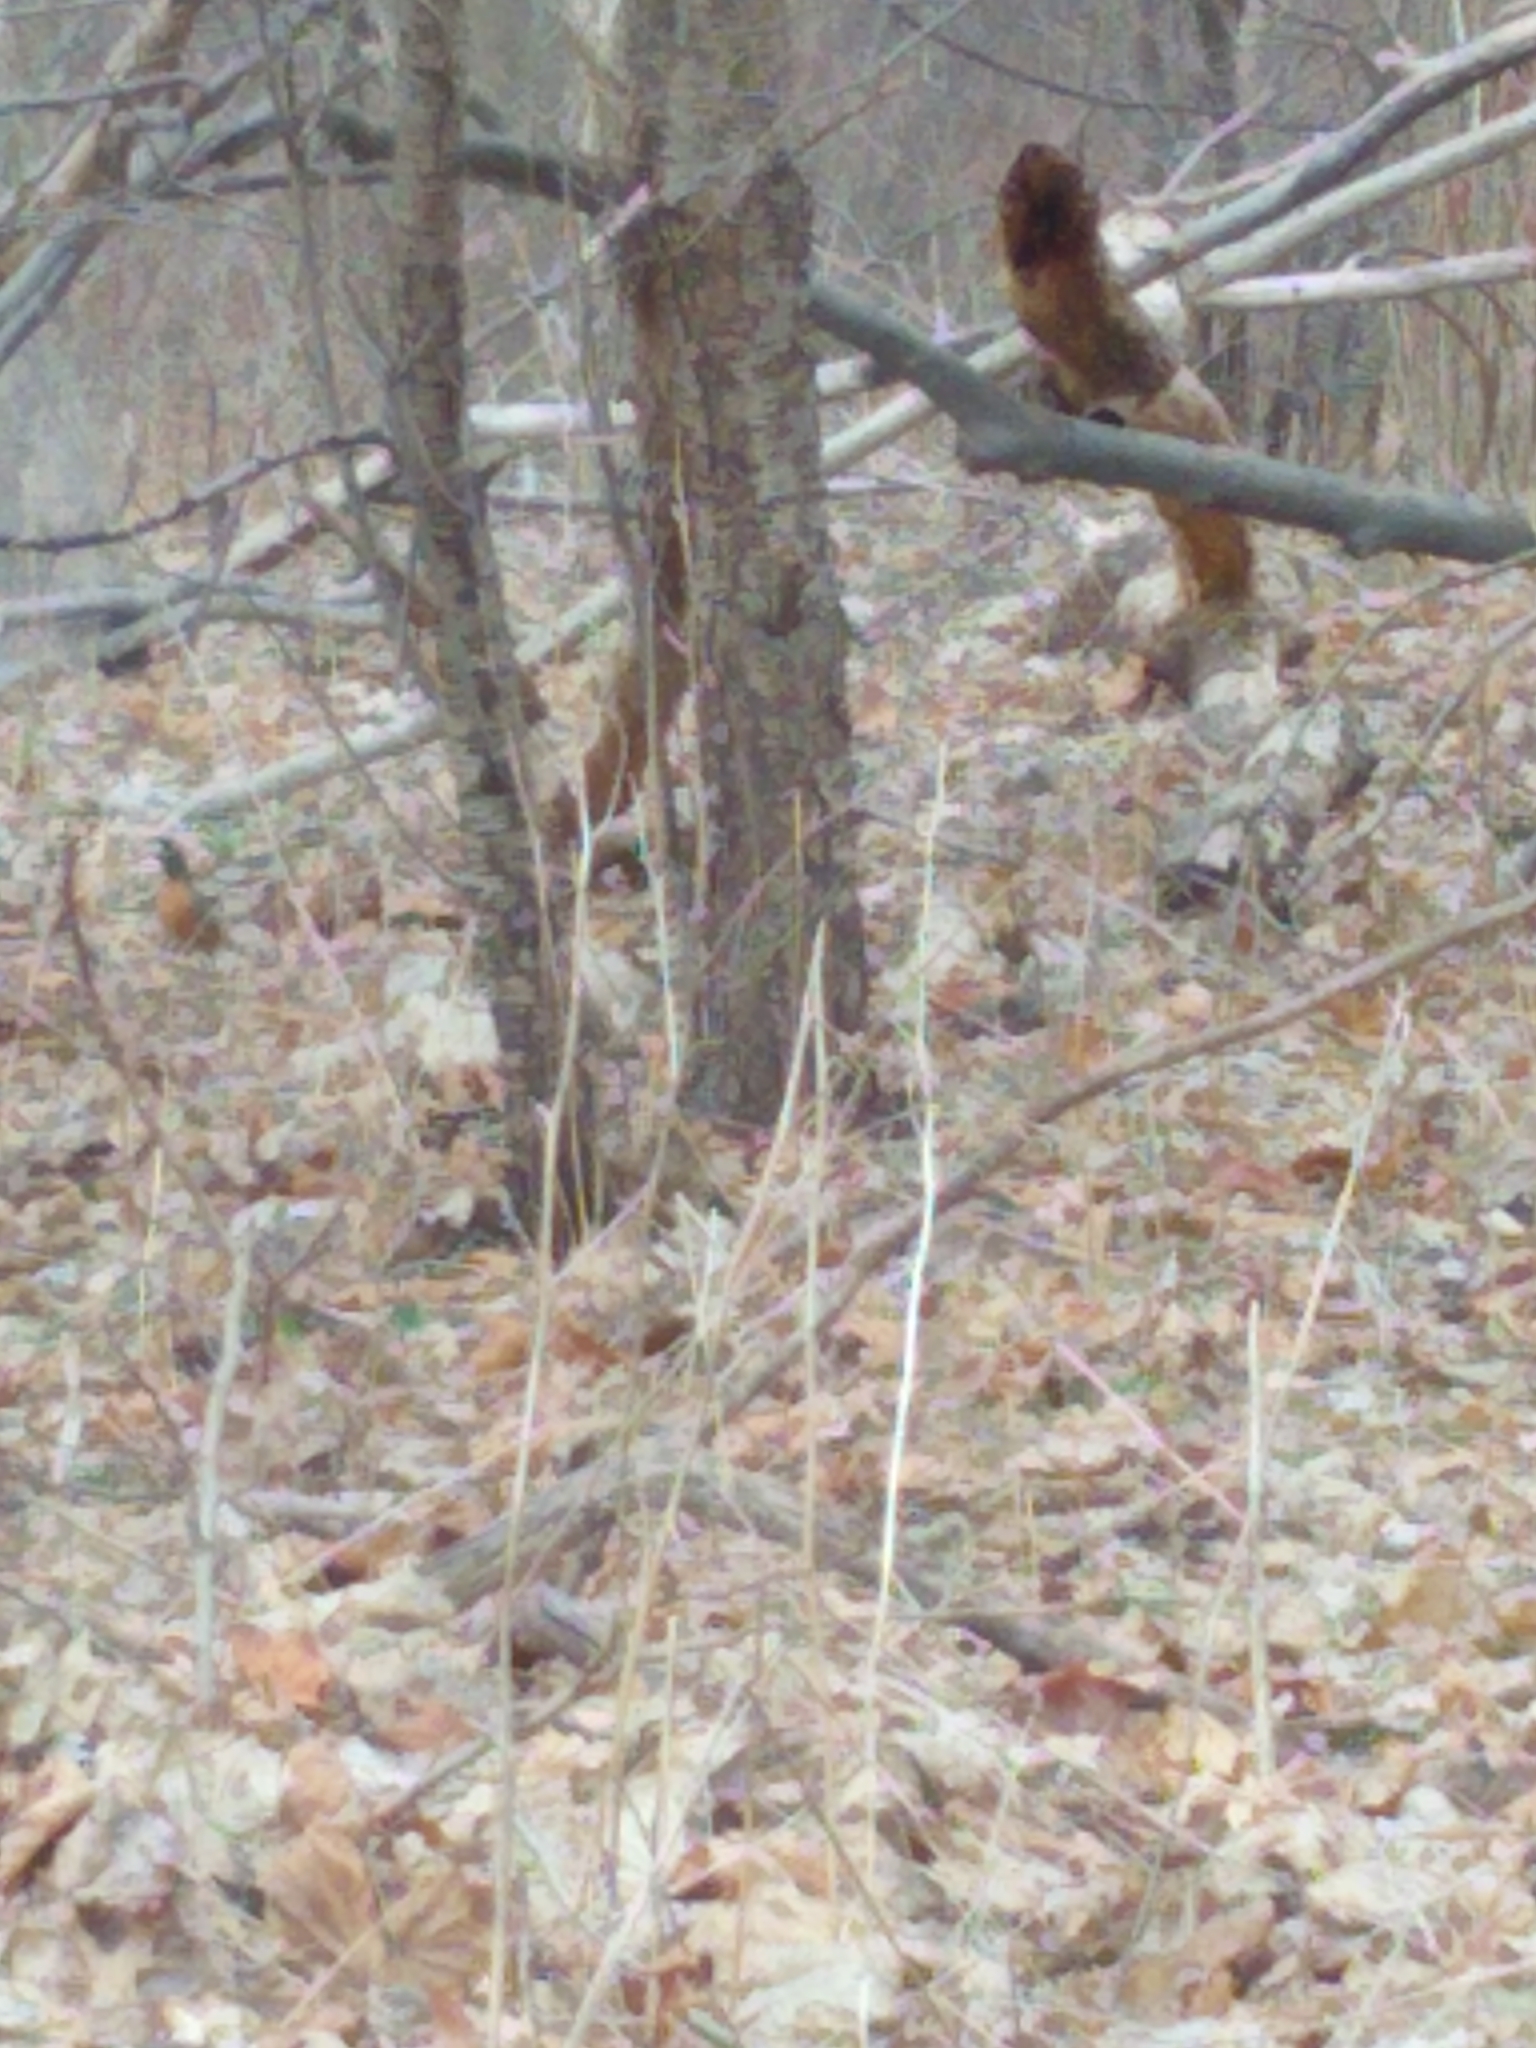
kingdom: Animalia
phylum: Chordata
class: Aves
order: Passeriformes
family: Turdidae
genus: Turdus
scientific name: Turdus migratorius
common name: American robin
